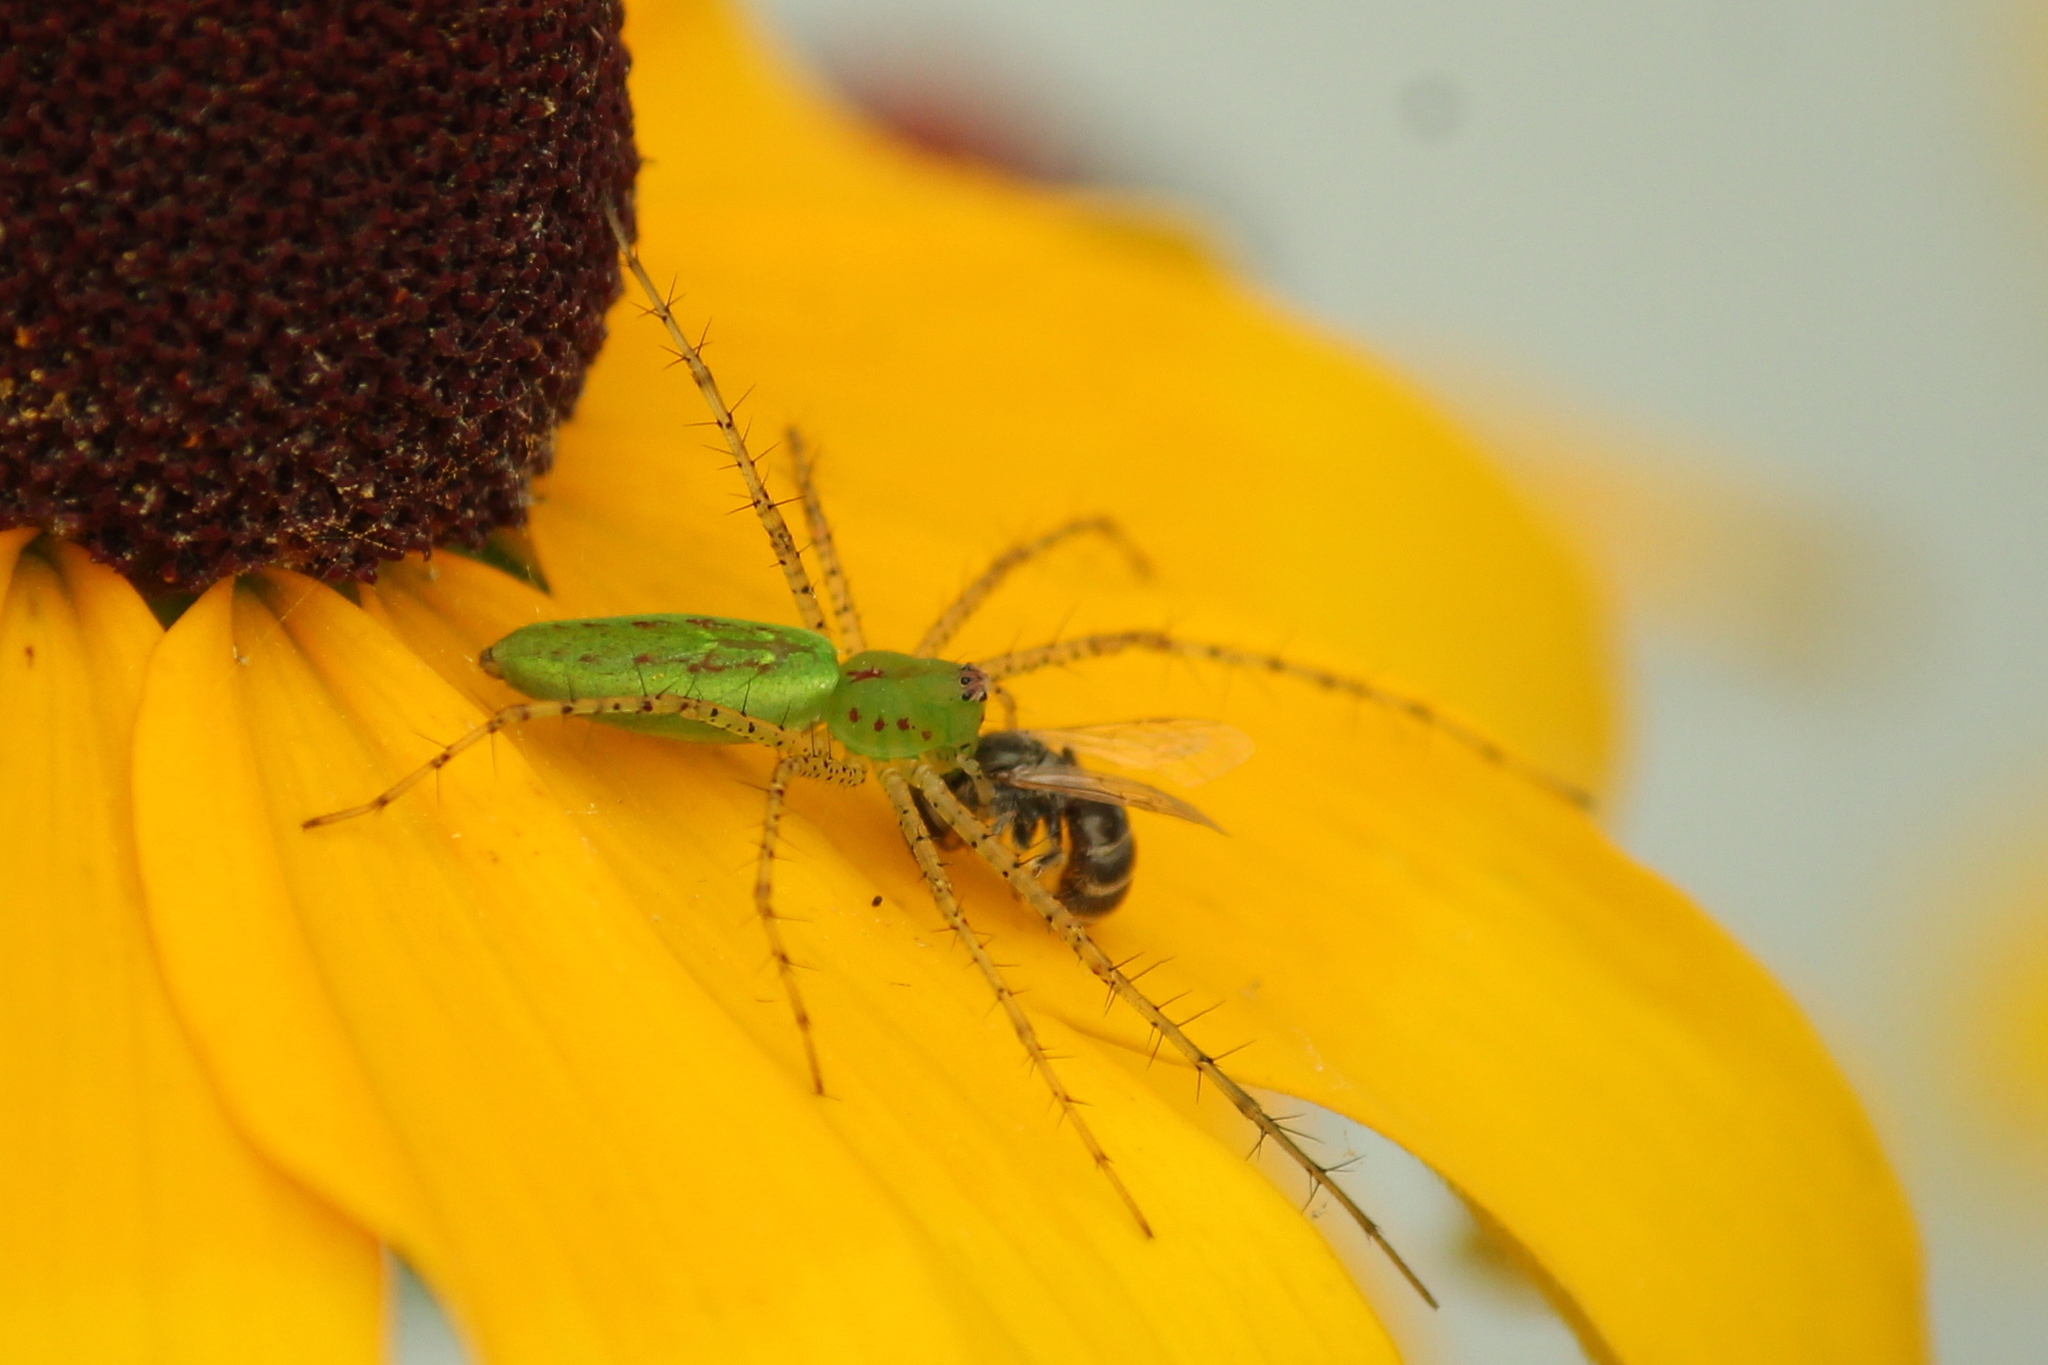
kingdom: Animalia
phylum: Arthropoda
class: Arachnida
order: Araneae
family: Oxyopidae
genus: Peucetia
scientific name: Peucetia viridans
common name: Lynx spiders
